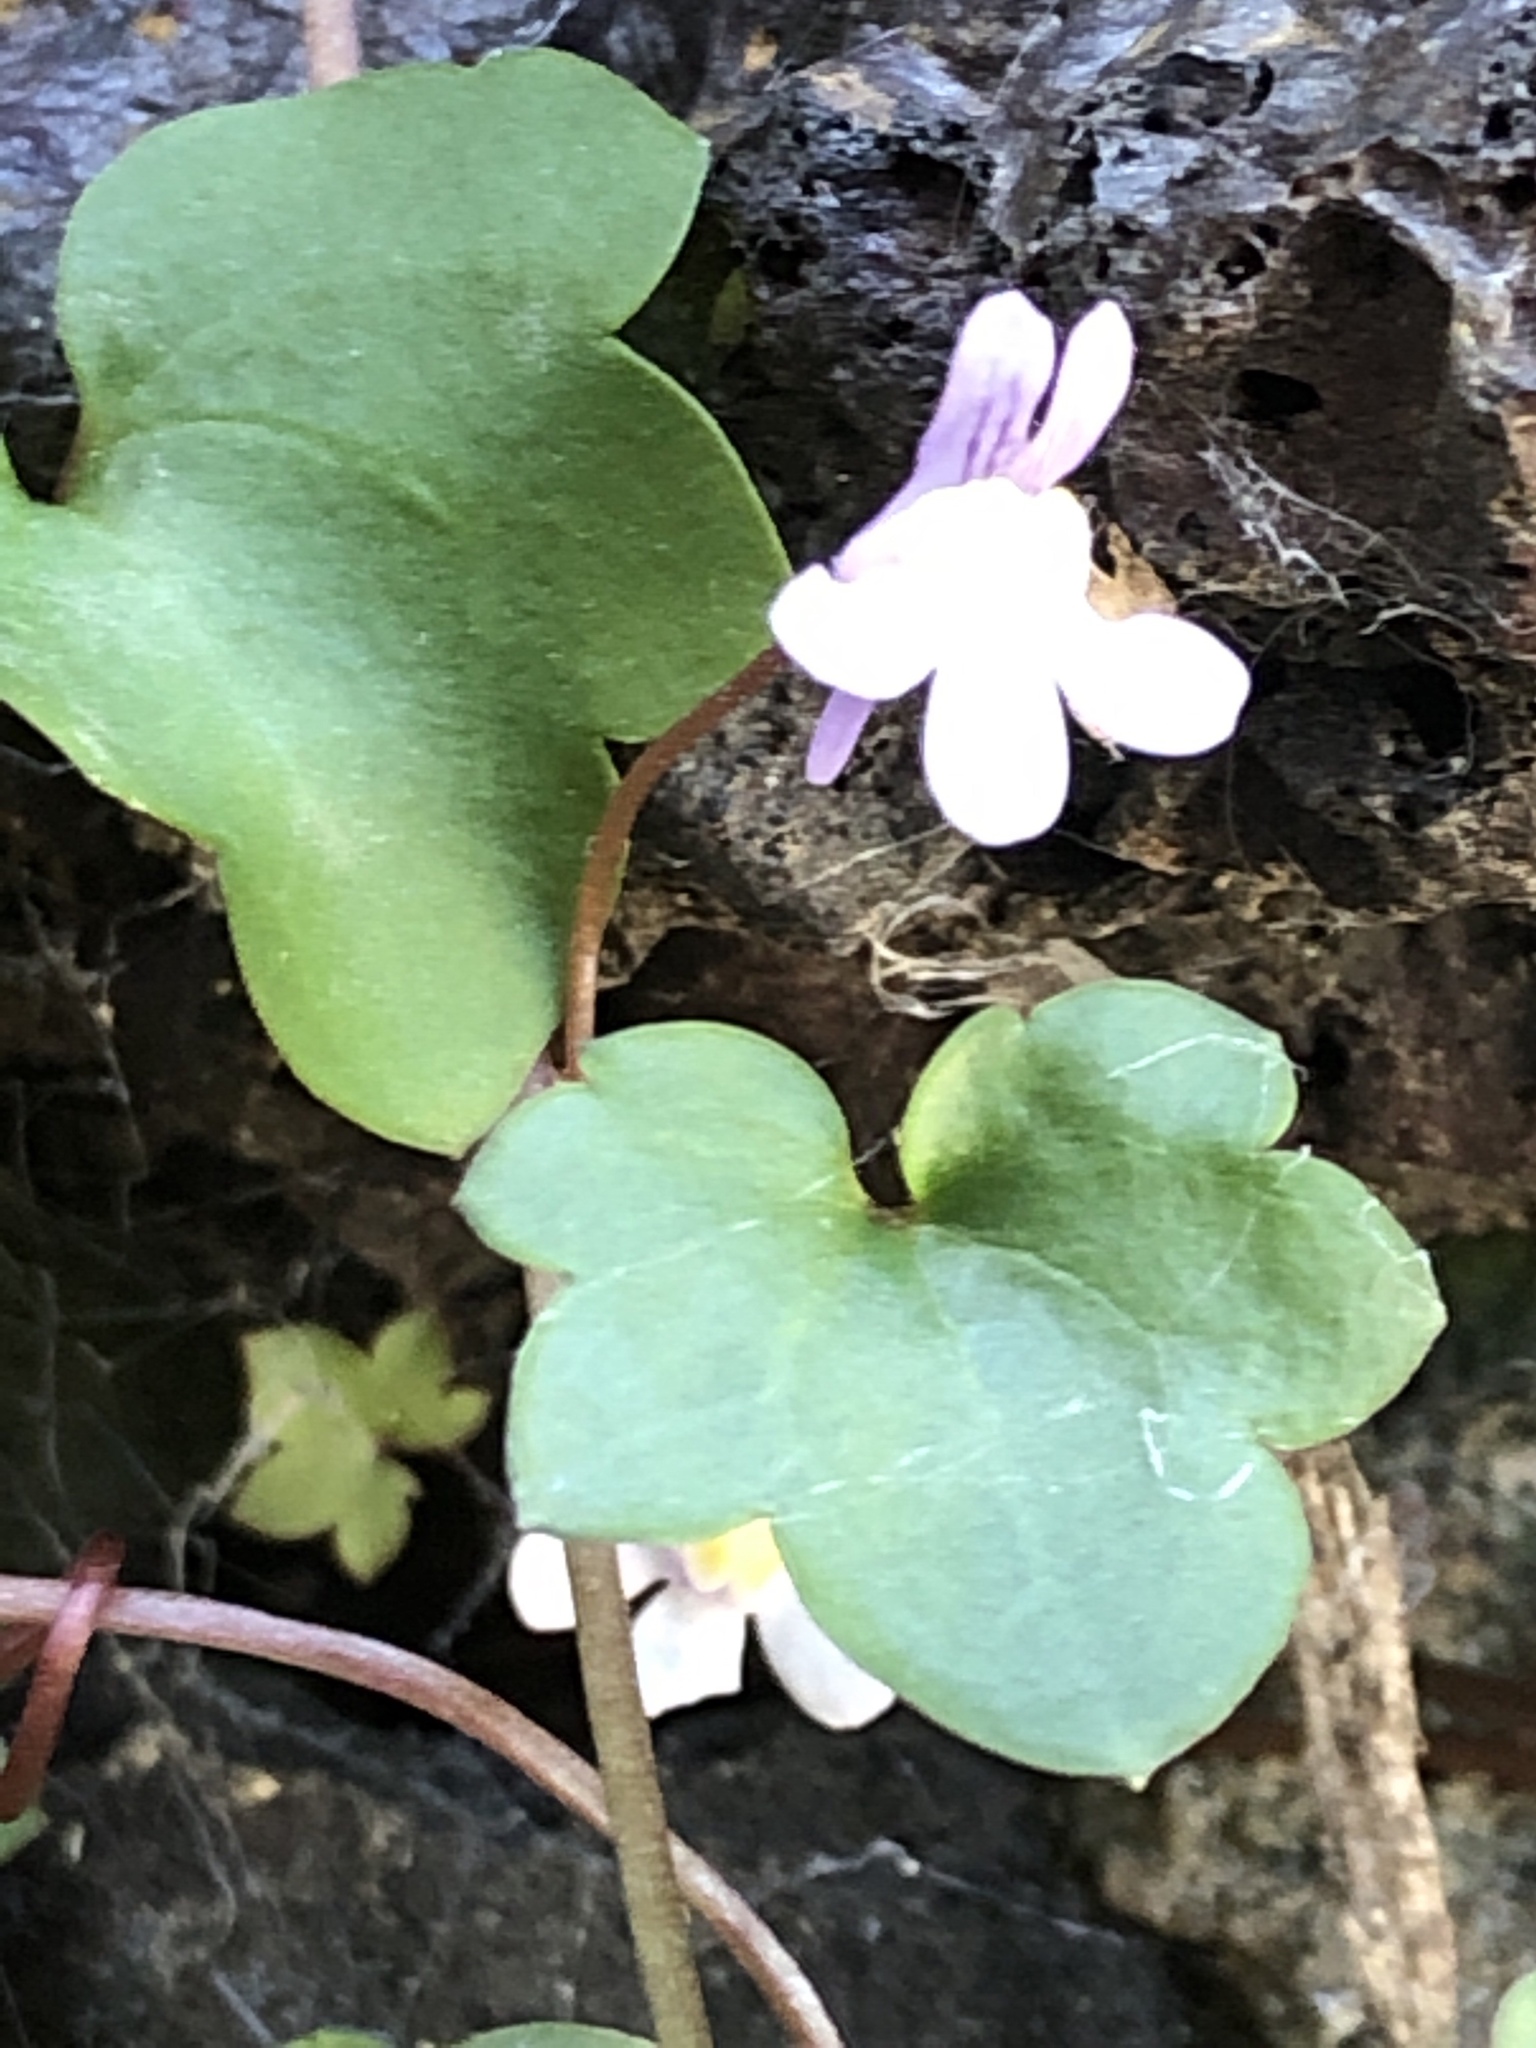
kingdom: Plantae
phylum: Tracheophyta
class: Magnoliopsida
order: Lamiales
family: Plantaginaceae
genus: Cymbalaria
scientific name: Cymbalaria muralis
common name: Ivy-leaved toadflax
